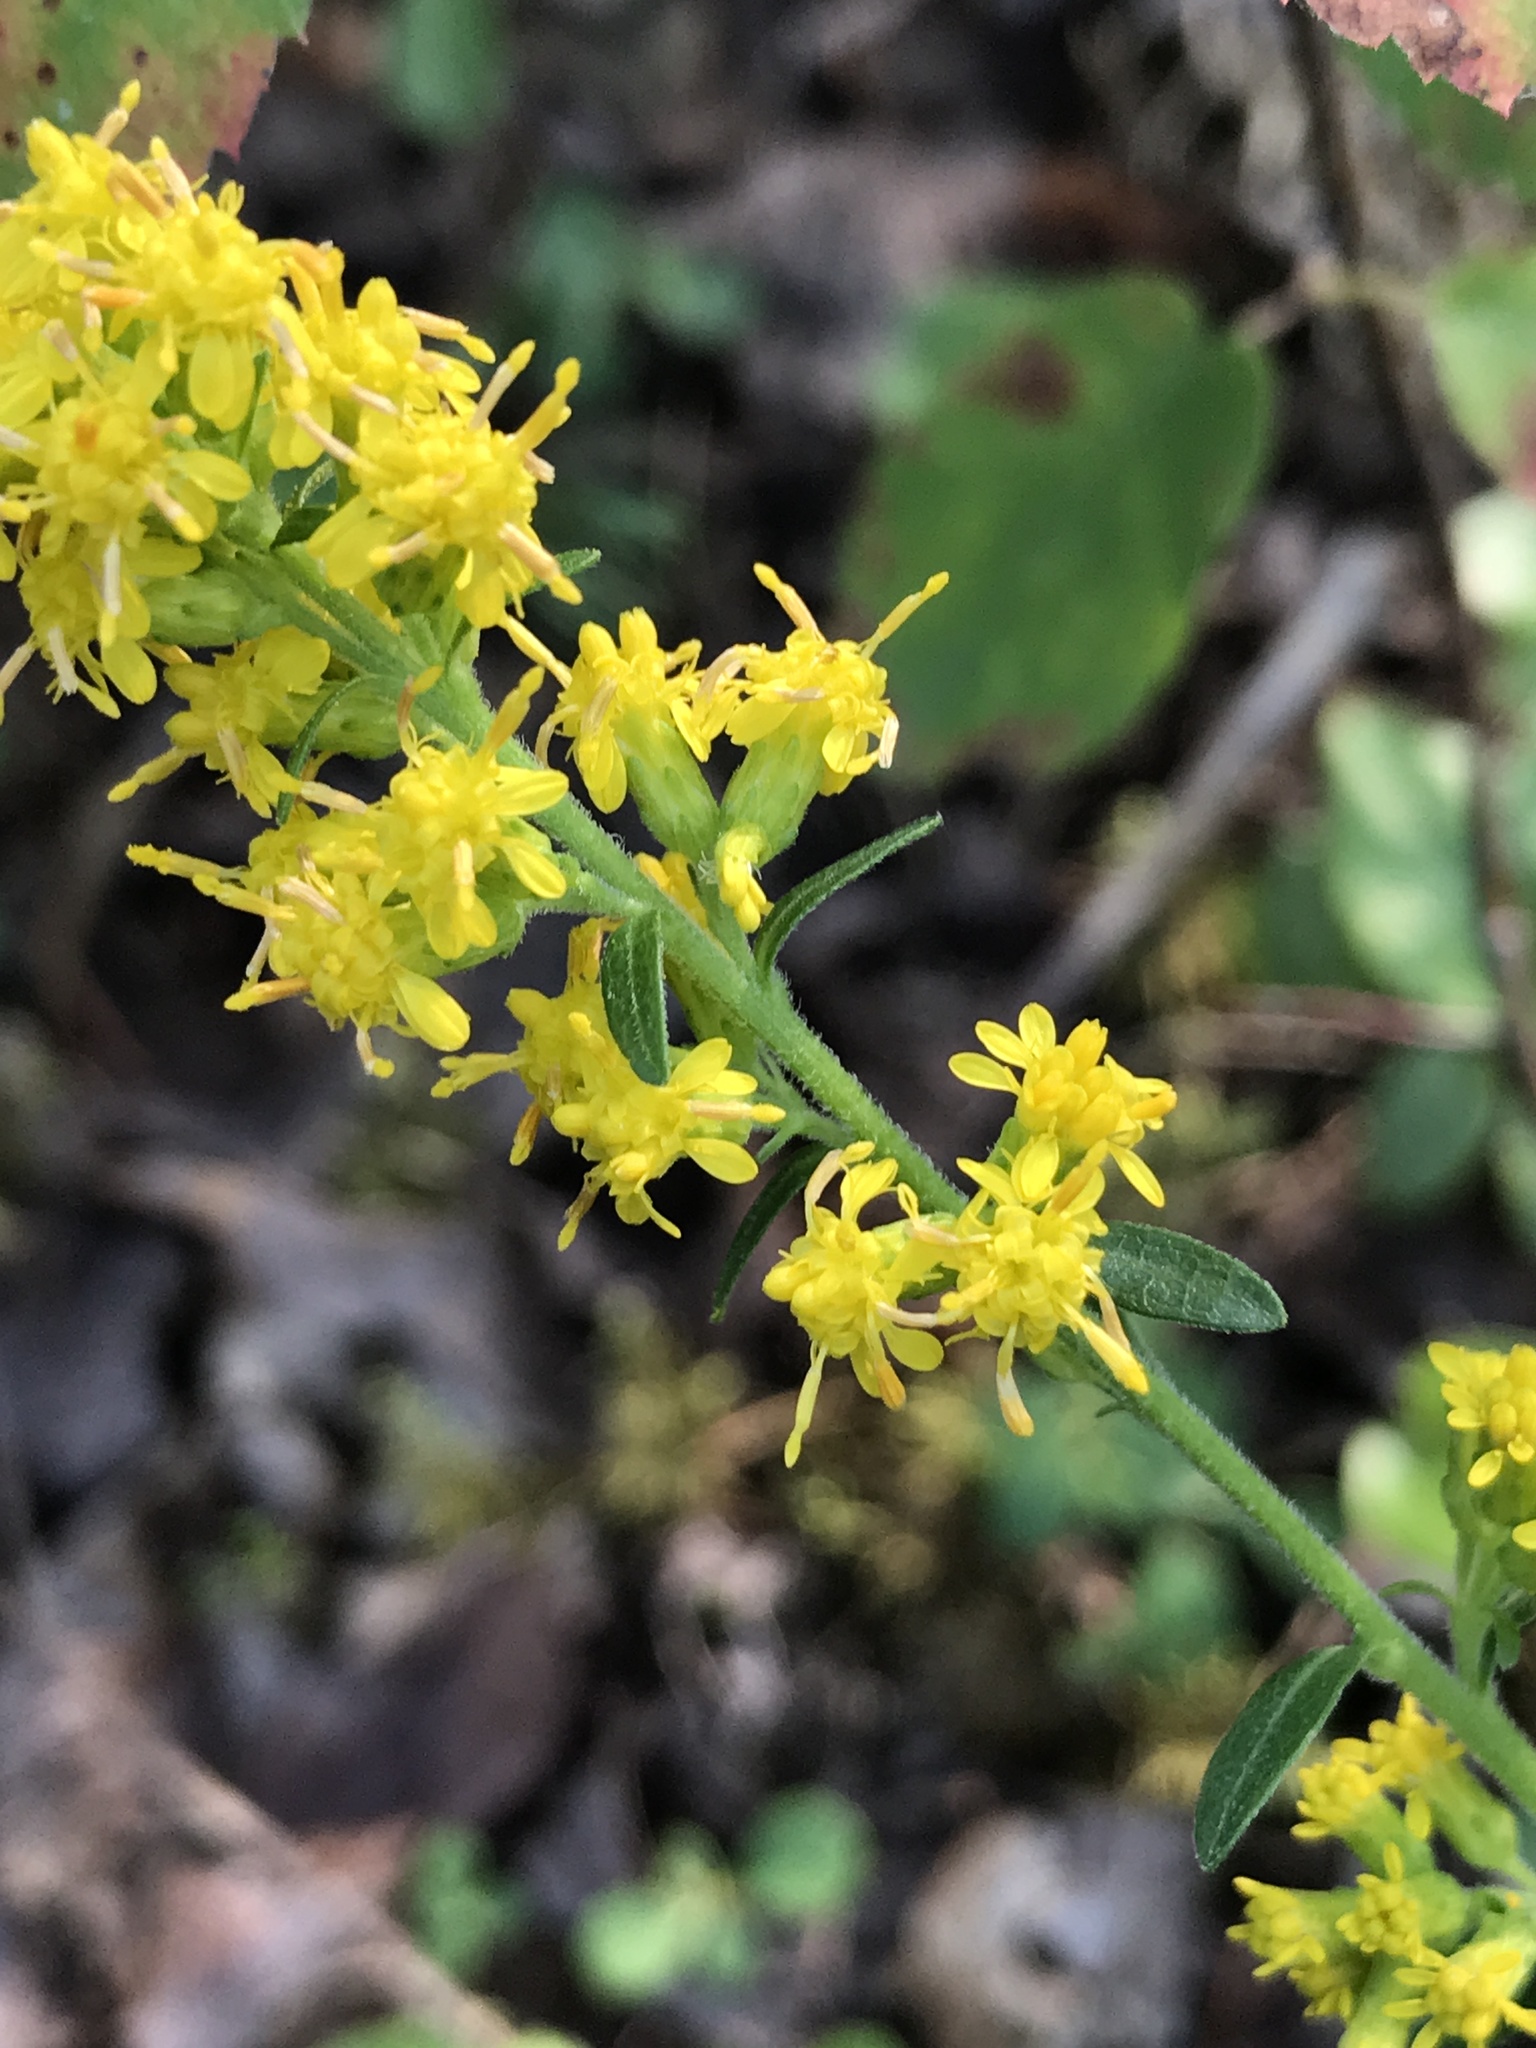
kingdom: Plantae
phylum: Tracheophyta
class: Magnoliopsida
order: Asterales
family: Asteraceae
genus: Solidago
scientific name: Solidago hispida
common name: Hairy goldenrod
